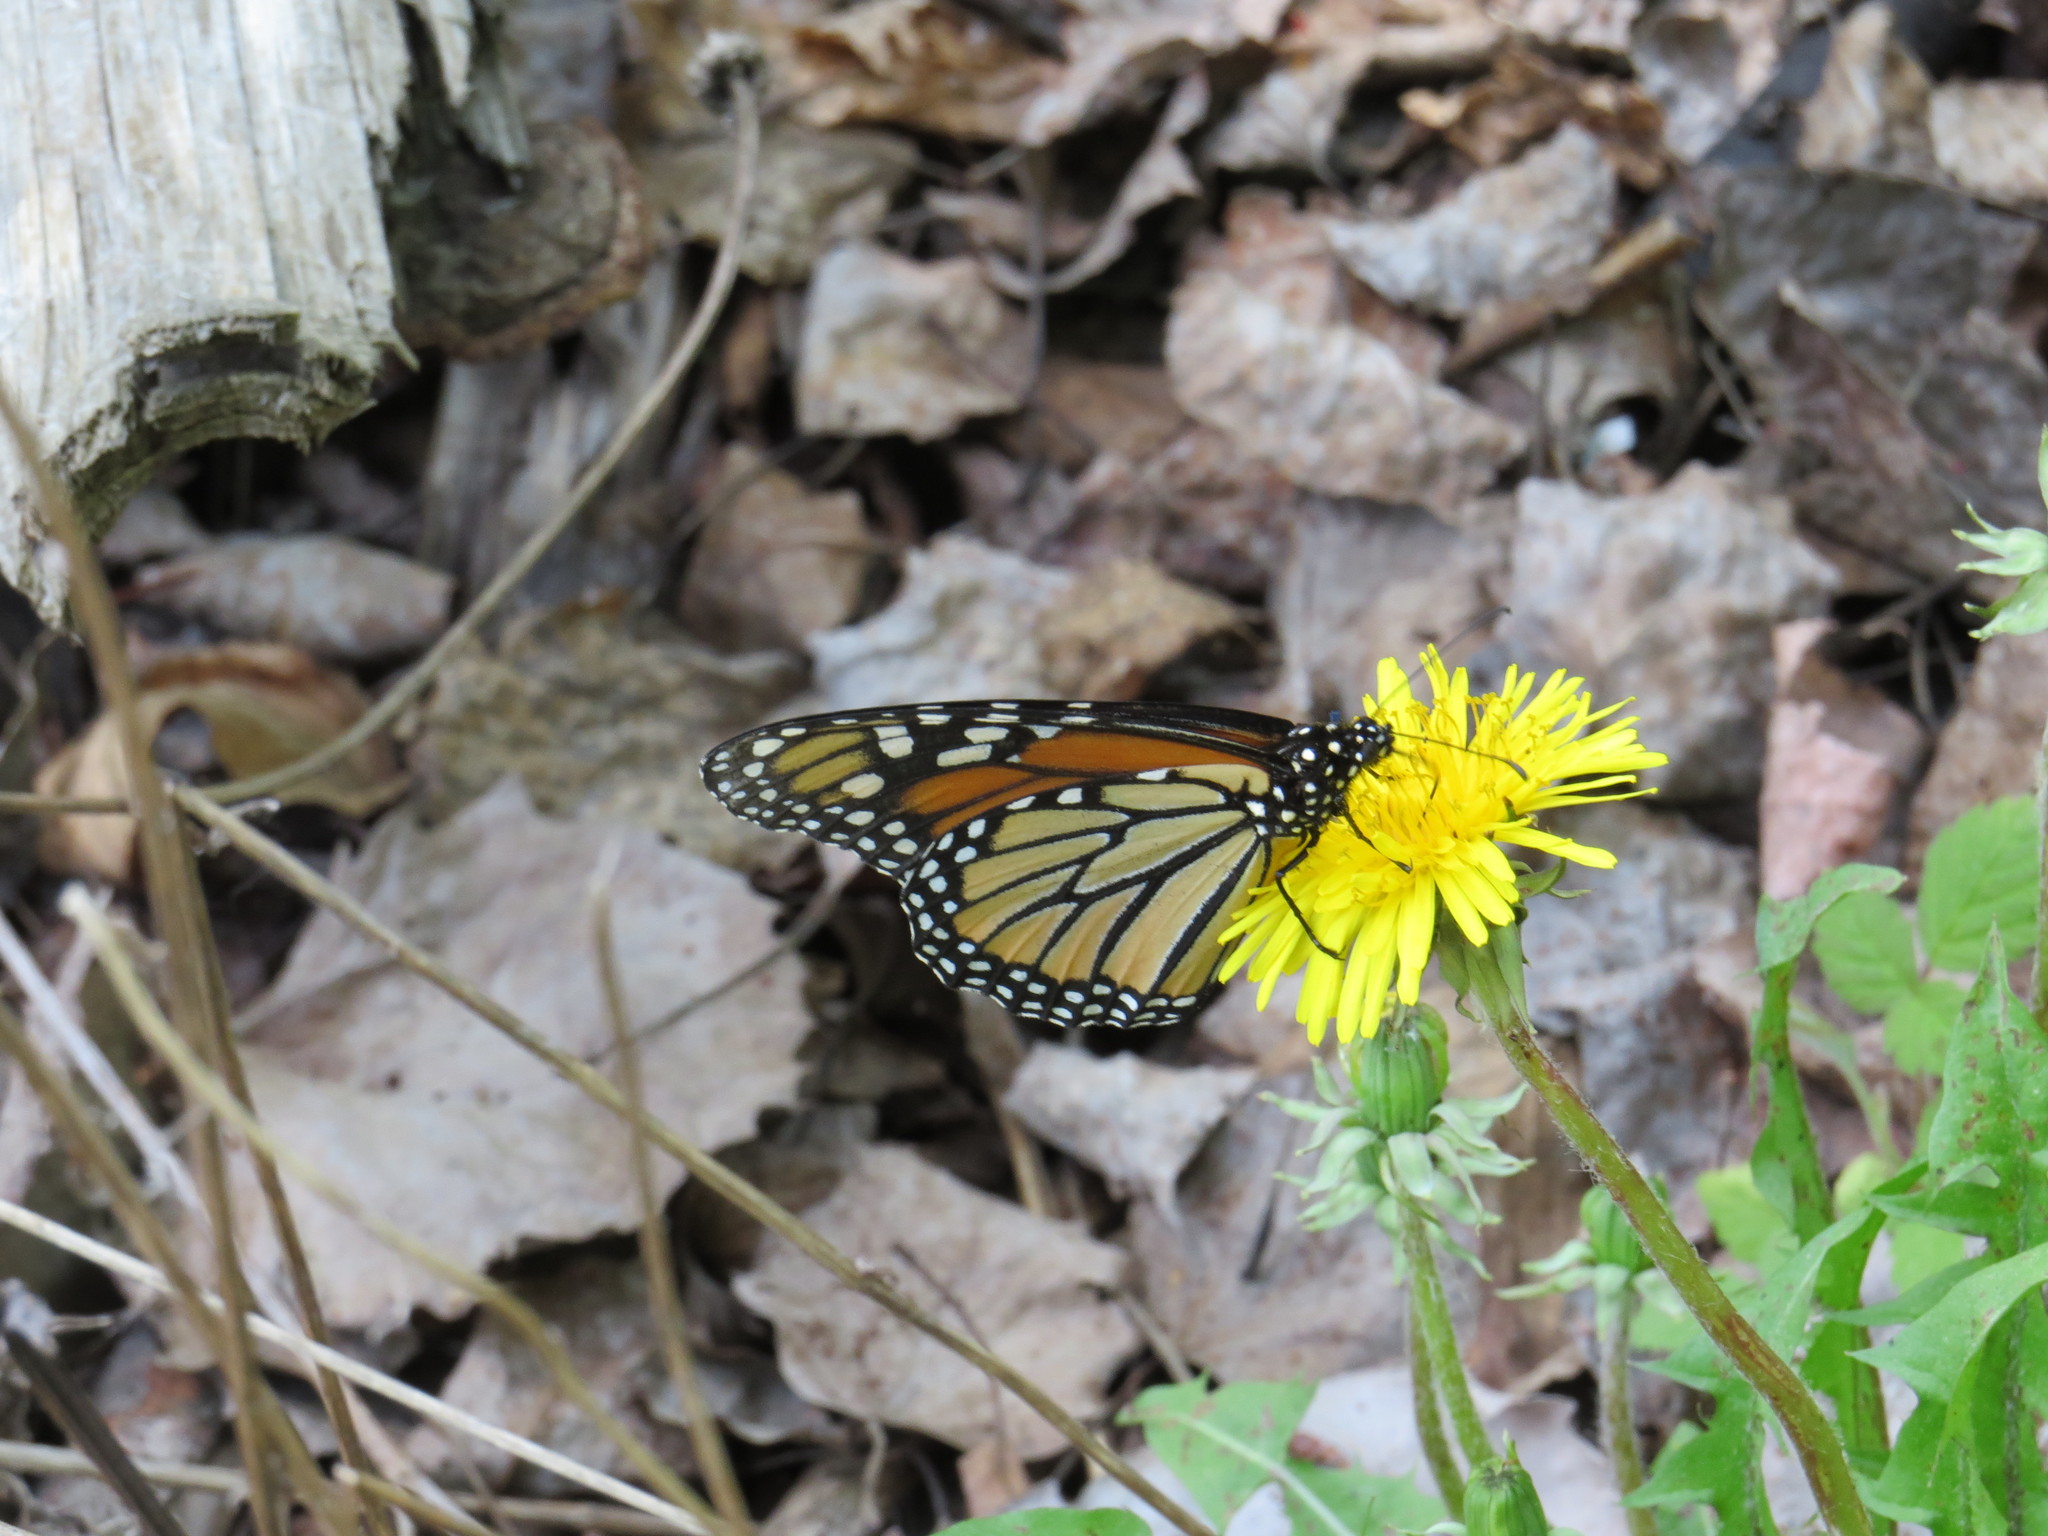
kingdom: Animalia
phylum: Arthropoda
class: Insecta
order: Lepidoptera
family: Nymphalidae
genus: Danaus
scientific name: Danaus plexippus
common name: Monarch
